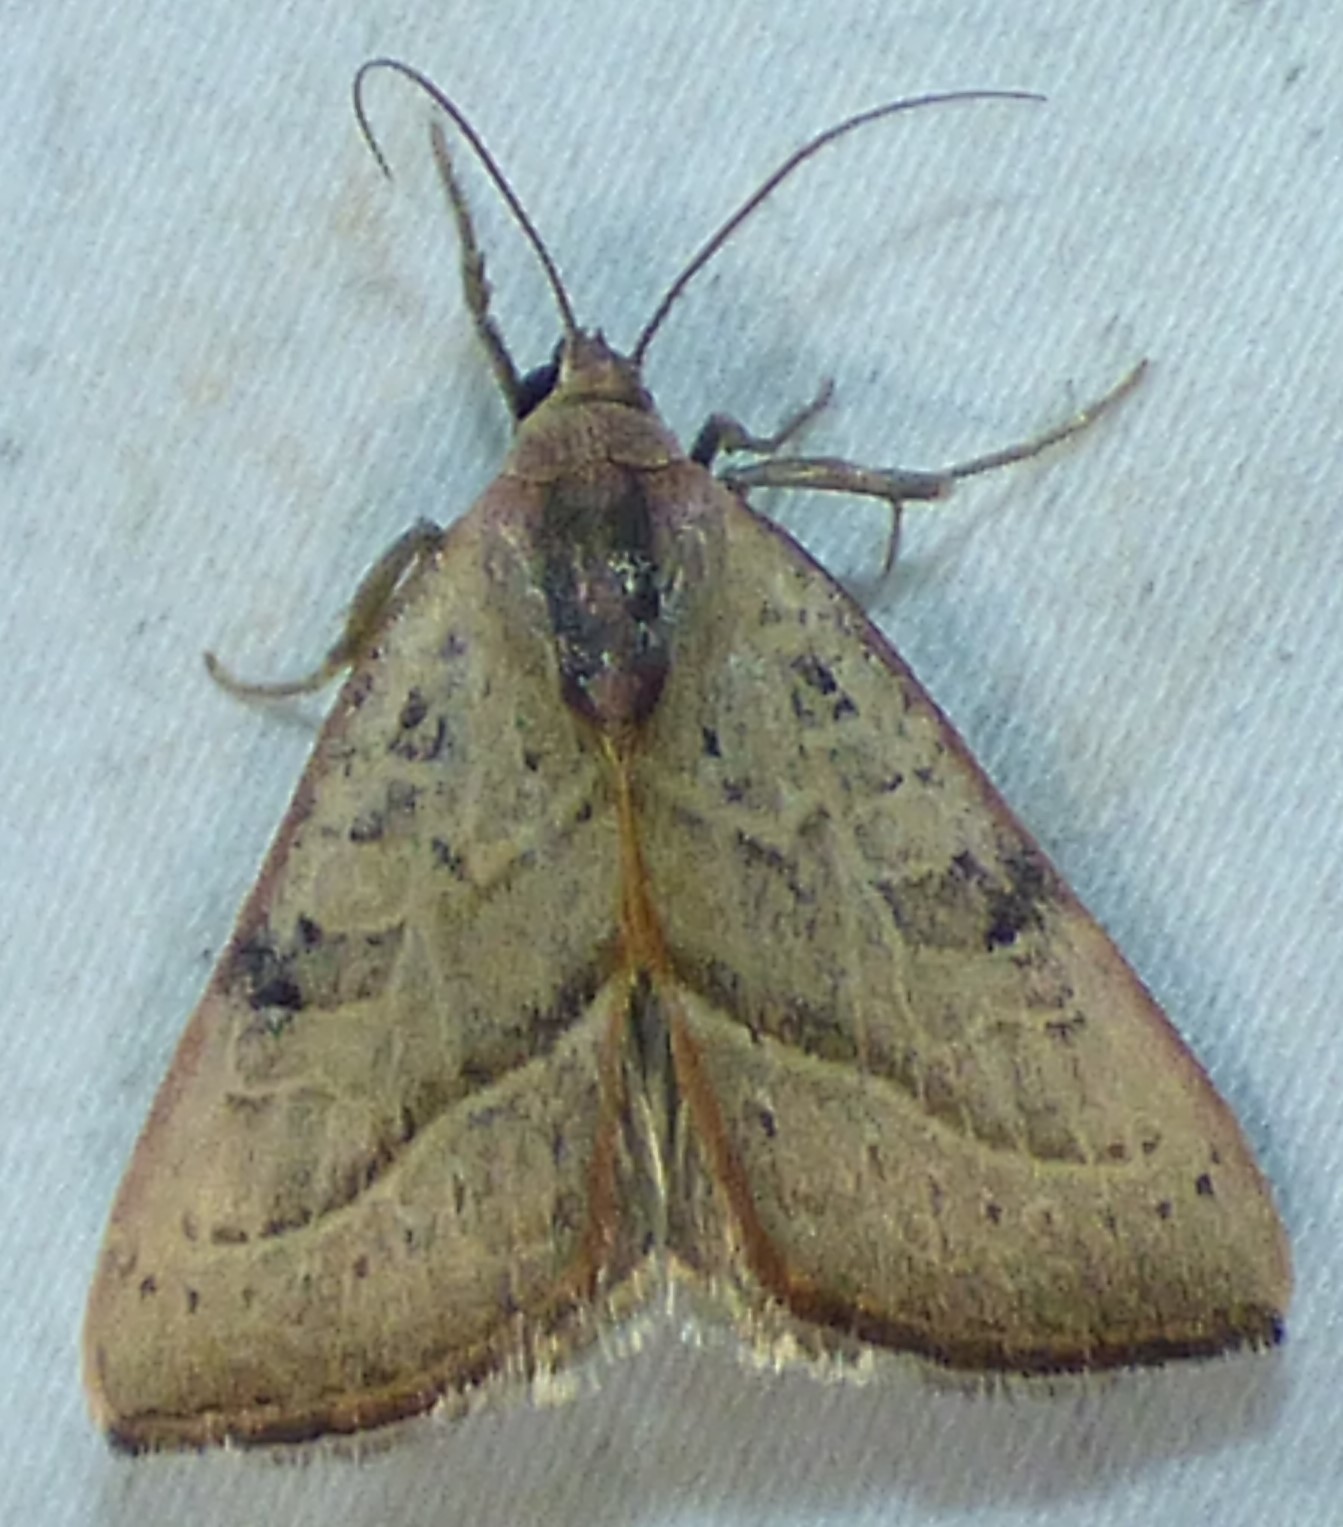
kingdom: Animalia
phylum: Arthropoda
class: Insecta
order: Lepidoptera
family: Noctuidae
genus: Galgula
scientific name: Galgula partita
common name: Wedgeling
